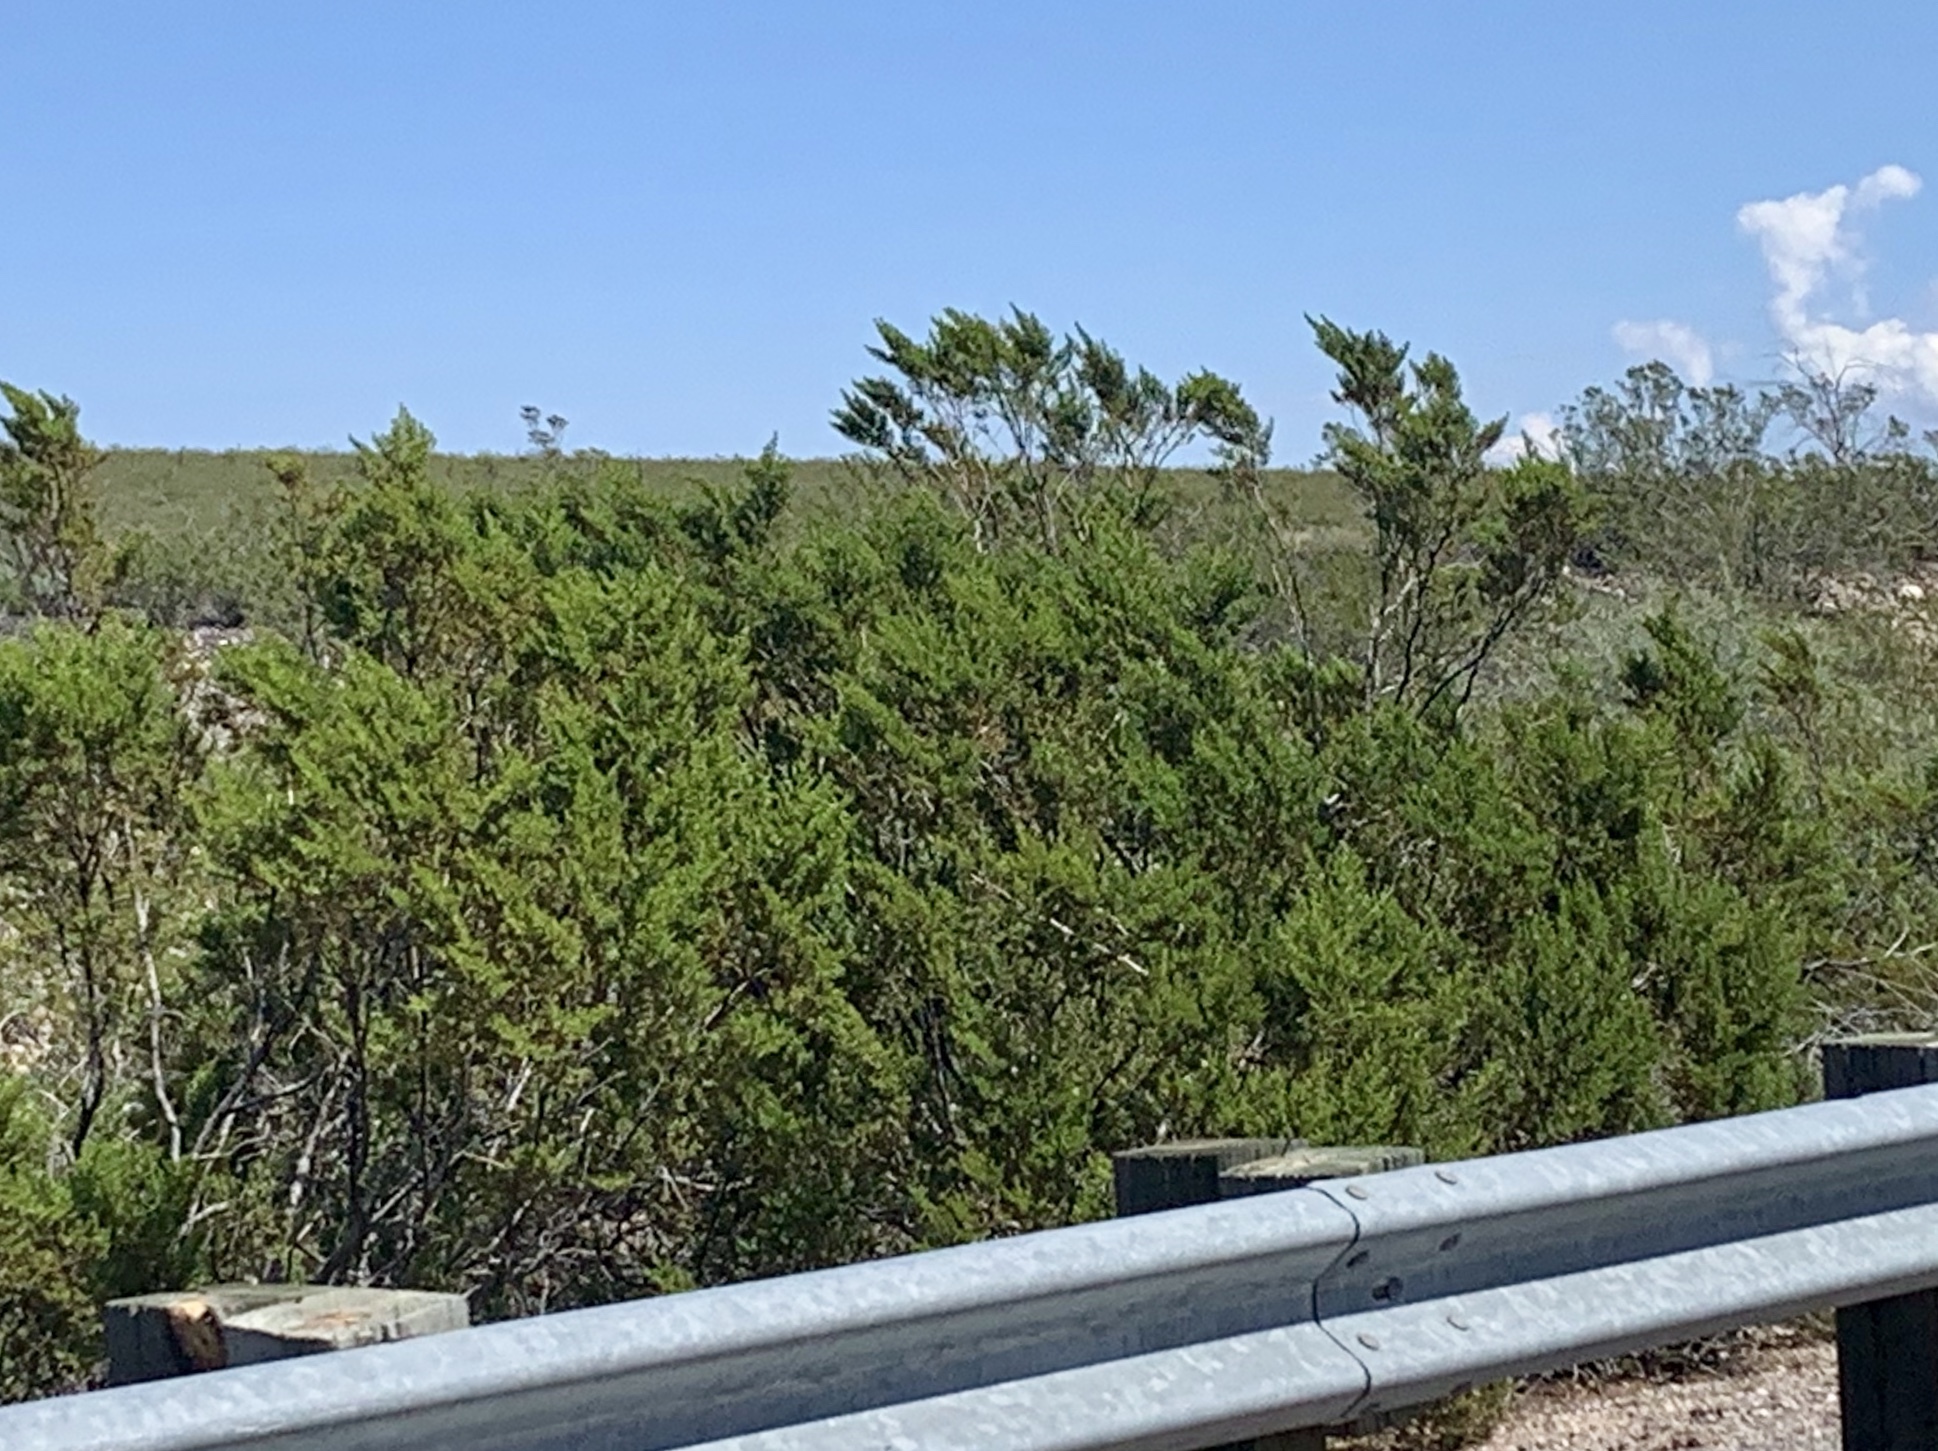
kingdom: Plantae
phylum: Tracheophyta
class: Magnoliopsida
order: Zygophyllales
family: Zygophyllaceae
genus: Larrea
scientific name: Larrea tridentata
